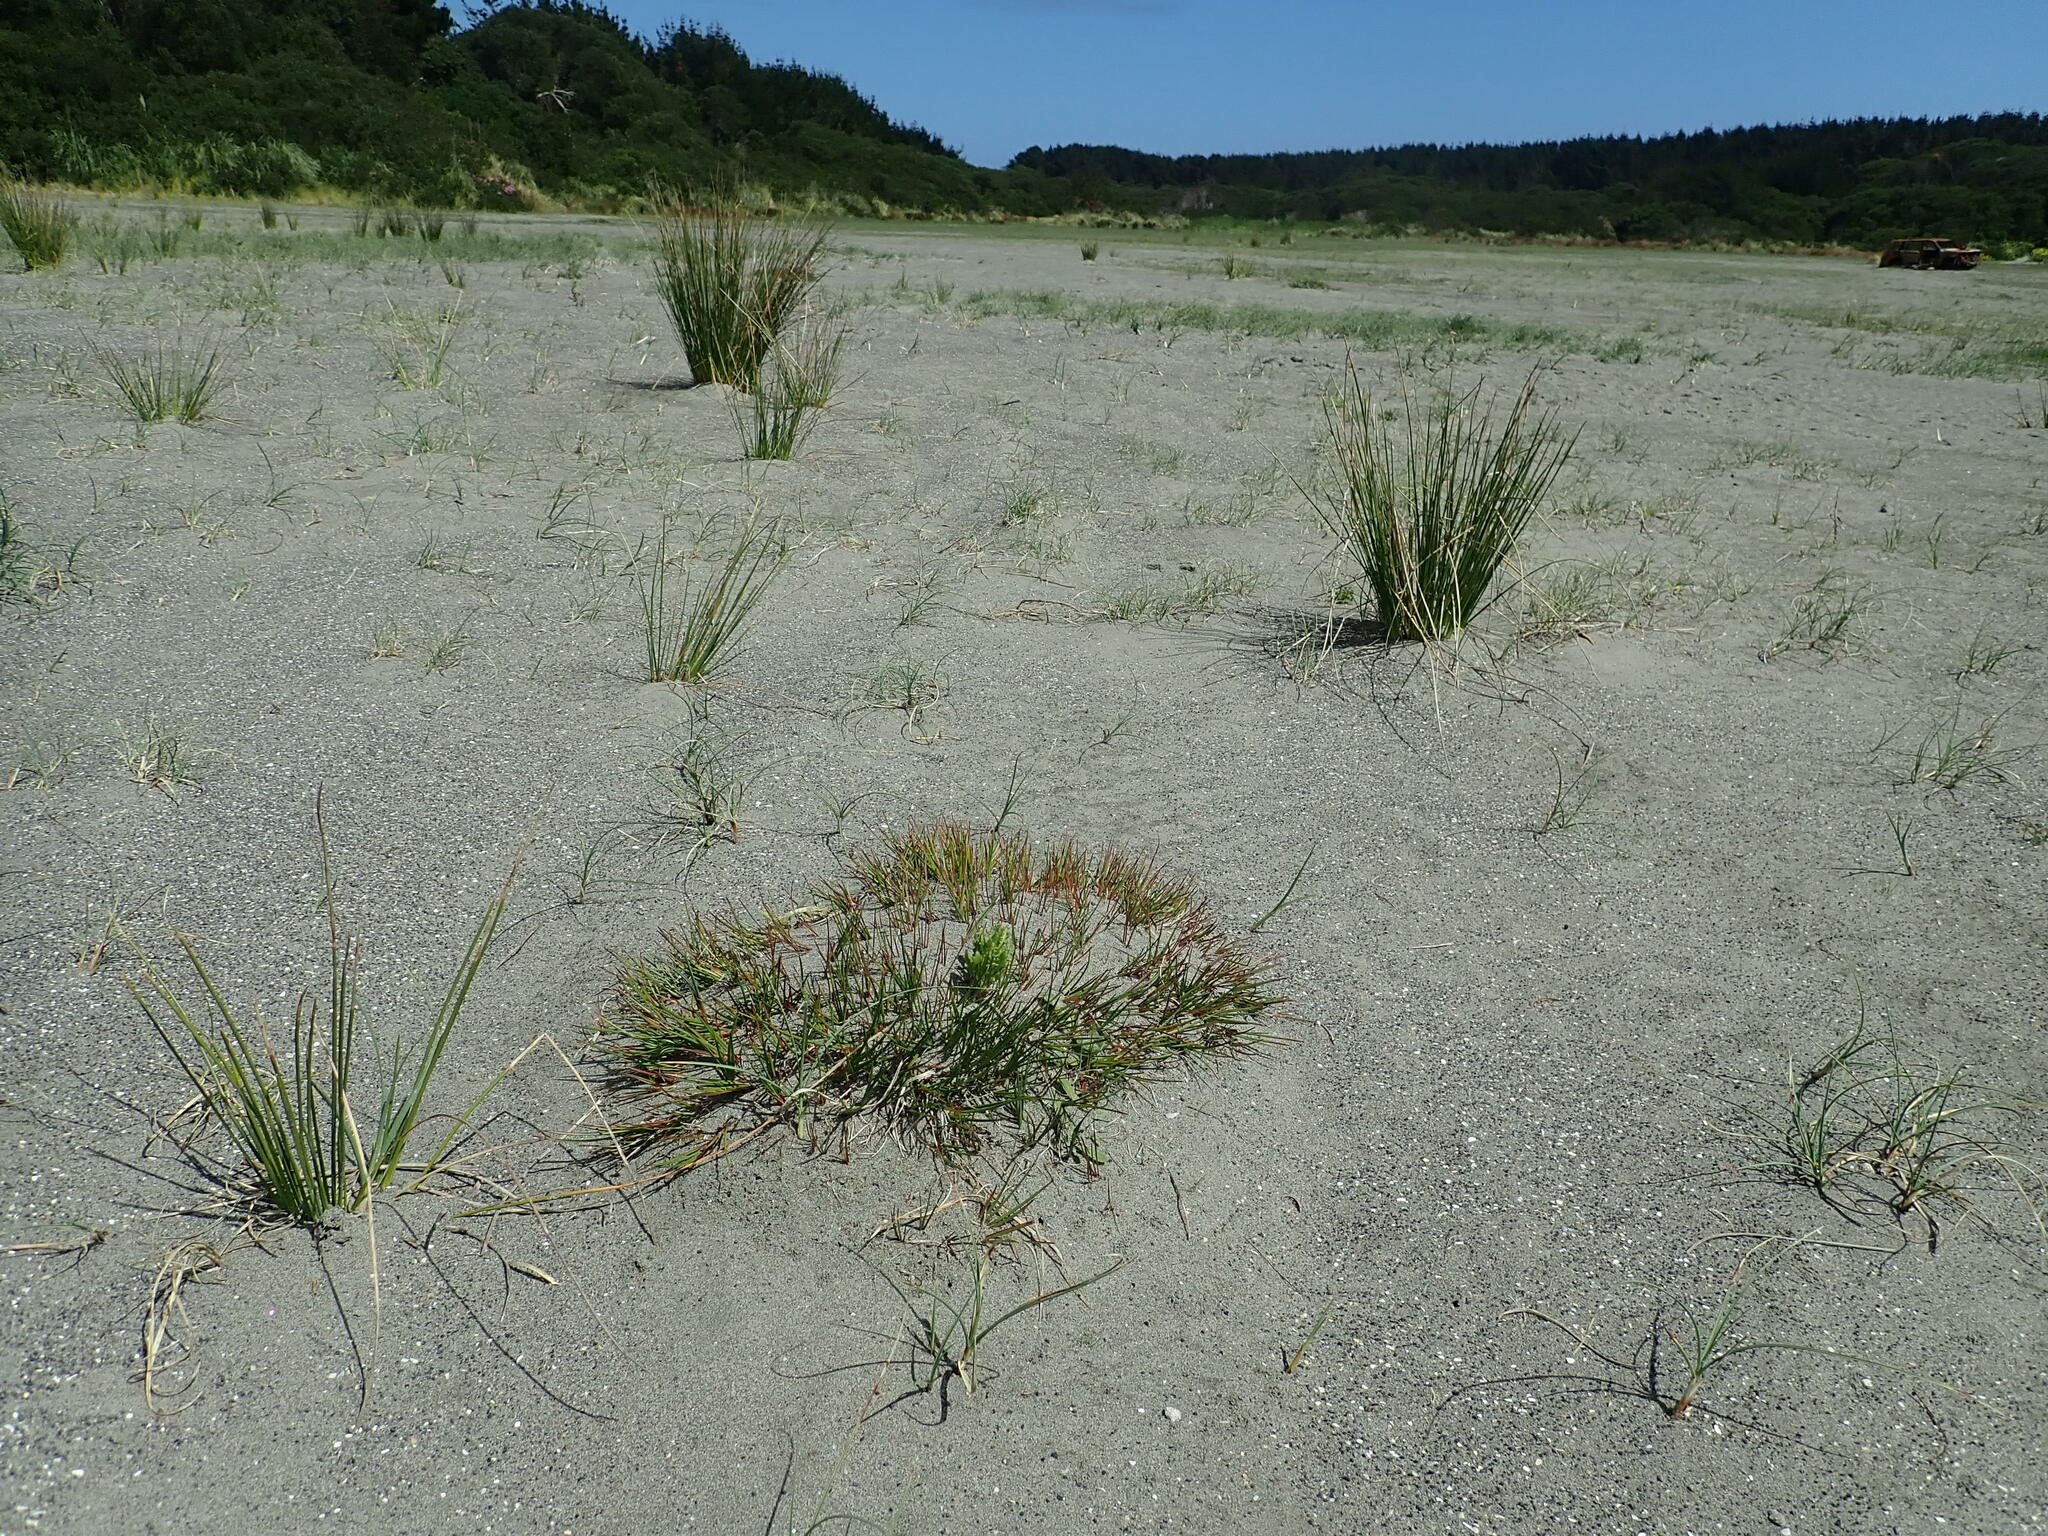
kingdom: Plantae
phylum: Tracheophyta
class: Liliopsida
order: Poales
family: Juncaceae
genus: Juncus
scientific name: Juncus articulatus
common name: Jointed rush
